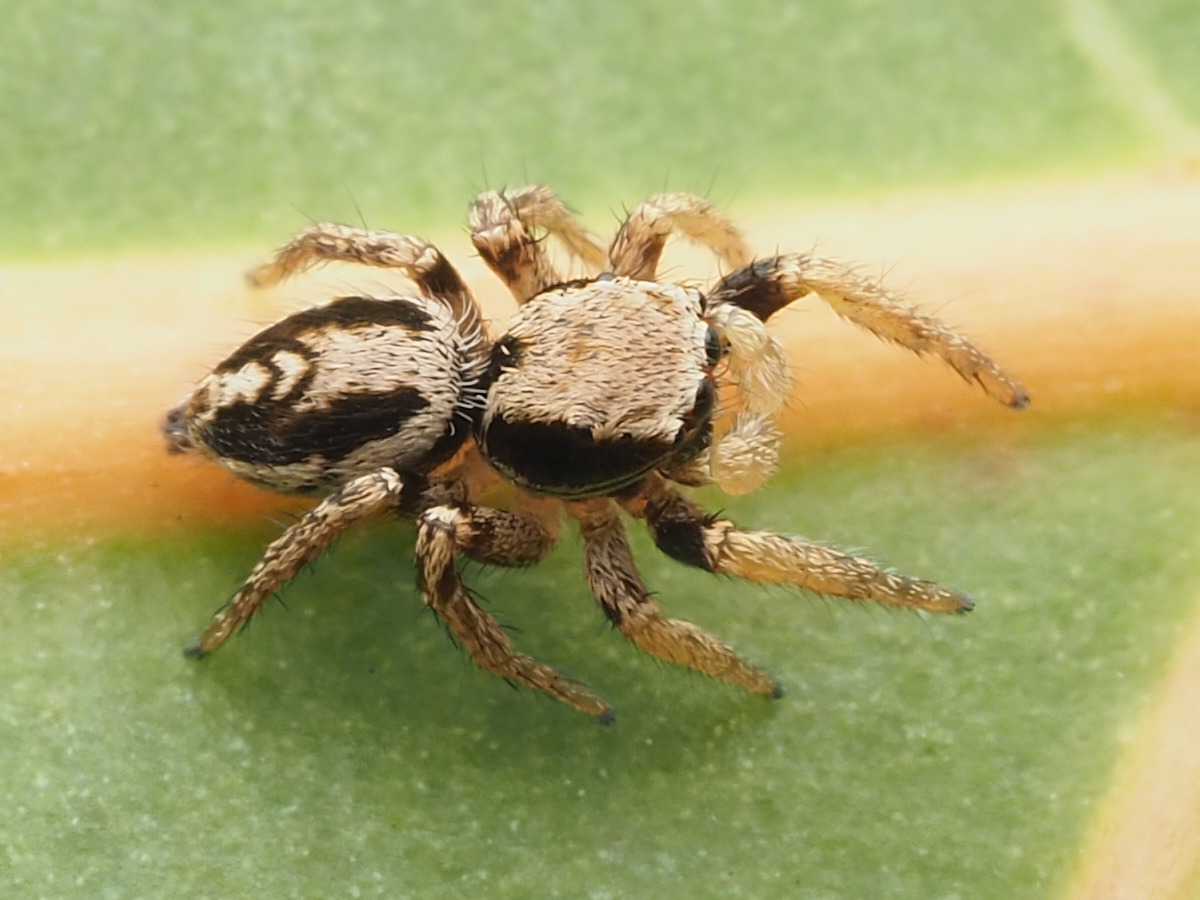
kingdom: Animalia
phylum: Arthropoda
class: Arachnida
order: Araneae
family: Salticidae
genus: Habronattus
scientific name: Habronattus mexicanus
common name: Jumping spiders
